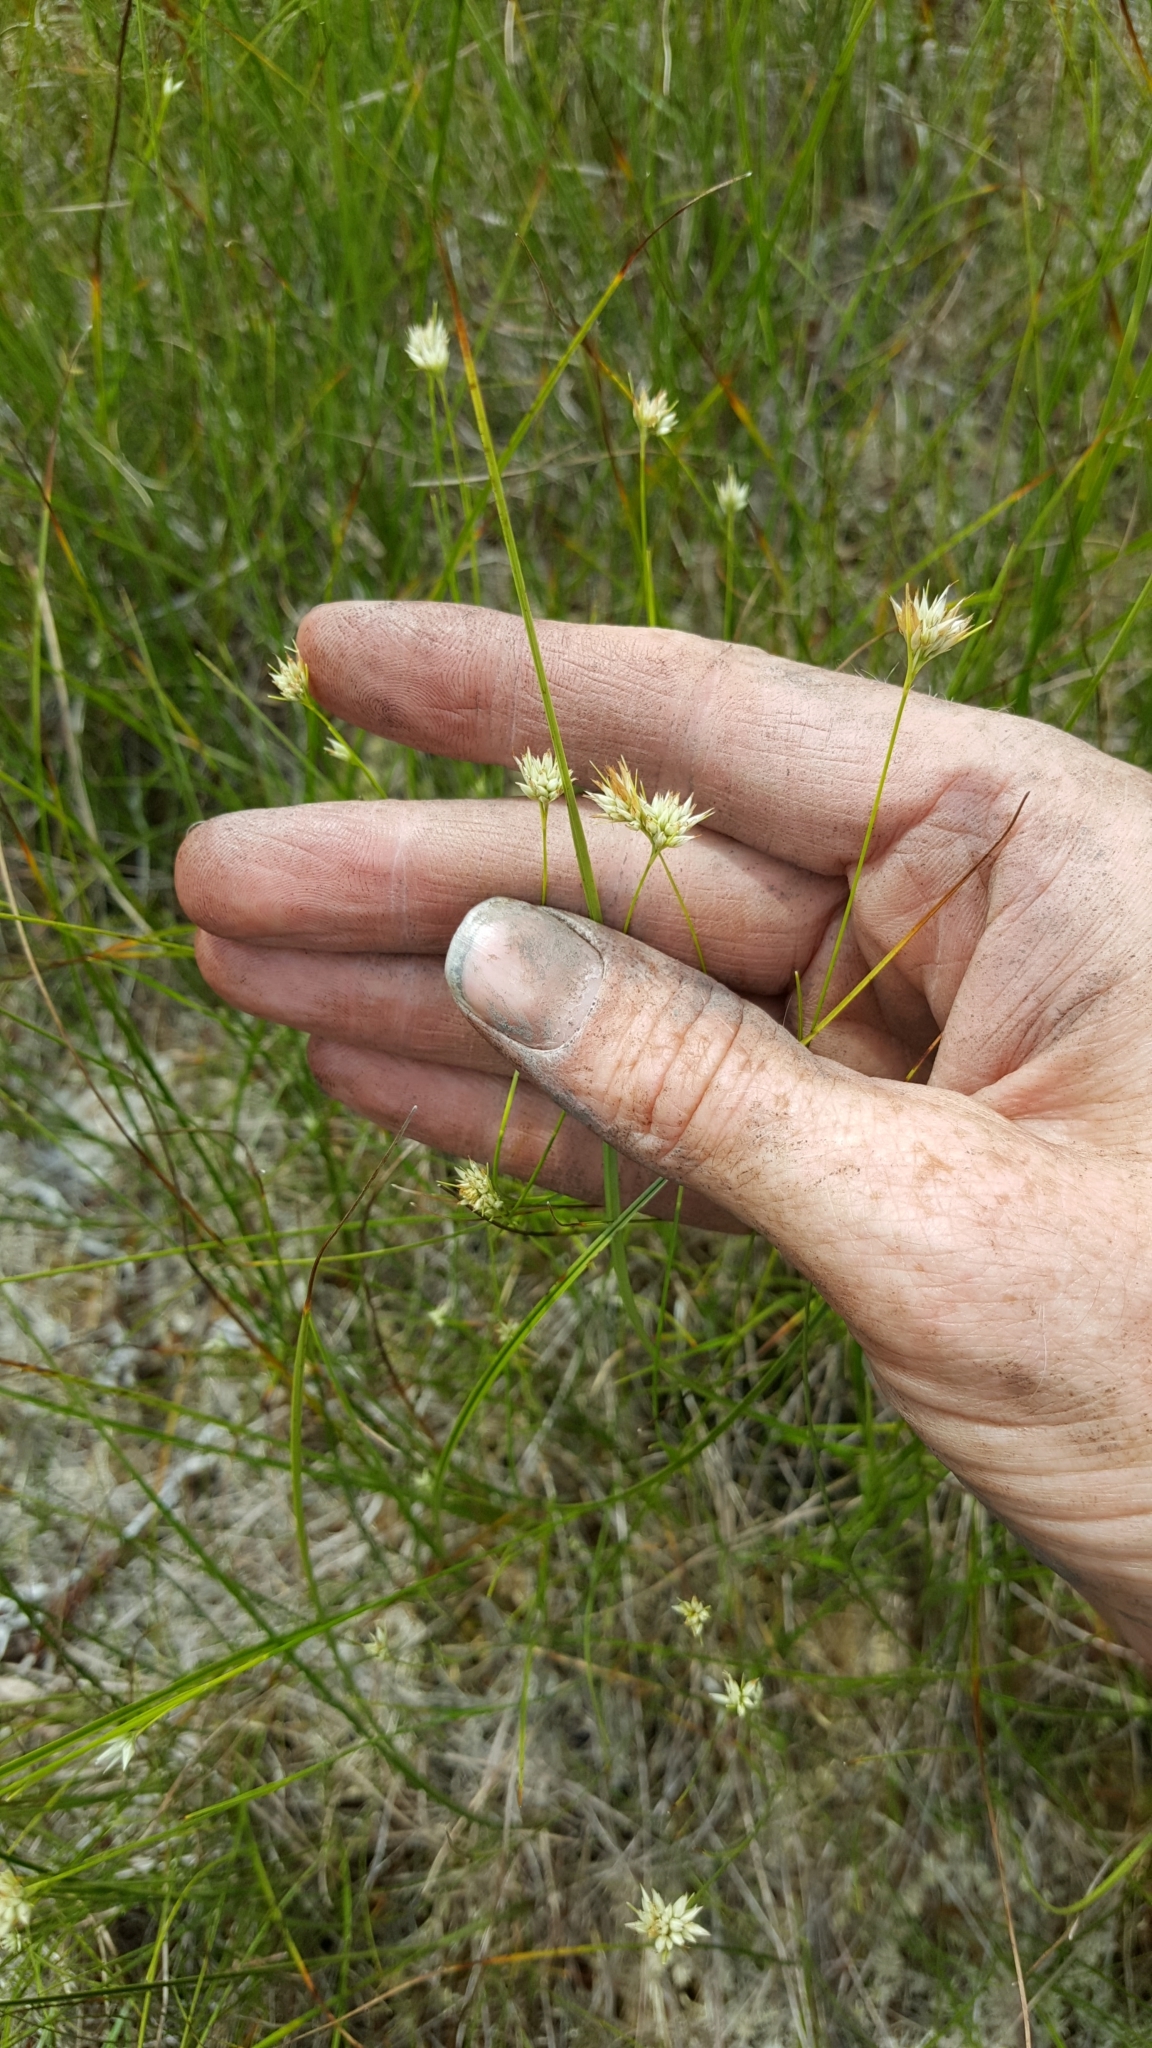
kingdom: Plantae
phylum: Tracheophyta
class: Liliopsida
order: Poales
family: Cyperaceae
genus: Rhynchospora
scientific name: Rhynchospora alba
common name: White beak-sedge
